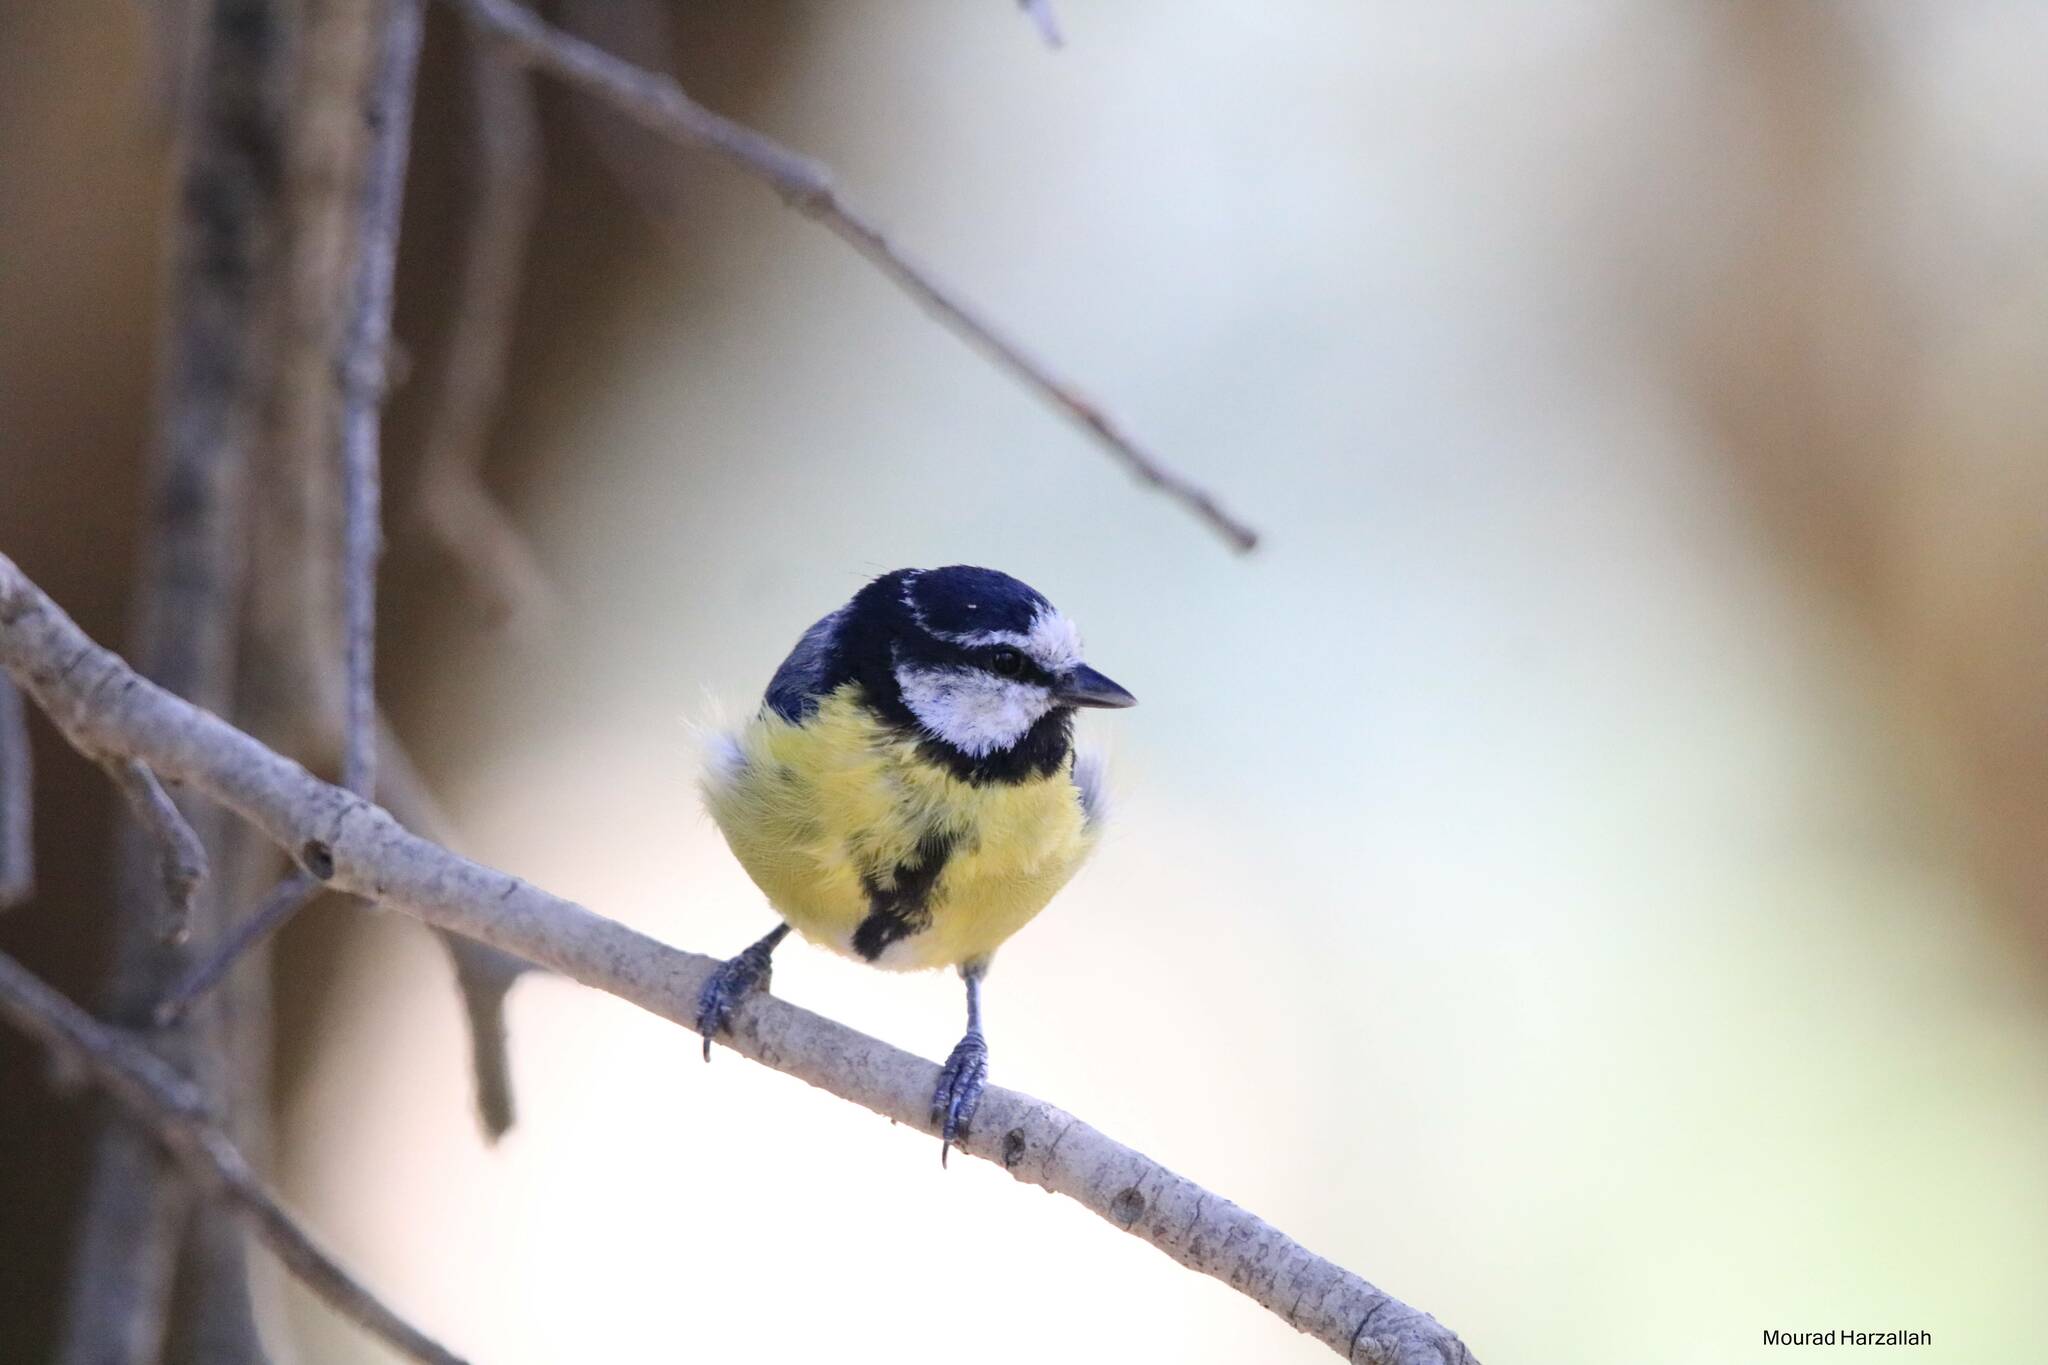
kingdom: Animalia
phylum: Chordata
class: Aves
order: Passeriformes
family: Paridae
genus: Cyanistes
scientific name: Cyanistes teneriffae
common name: African blue tit
